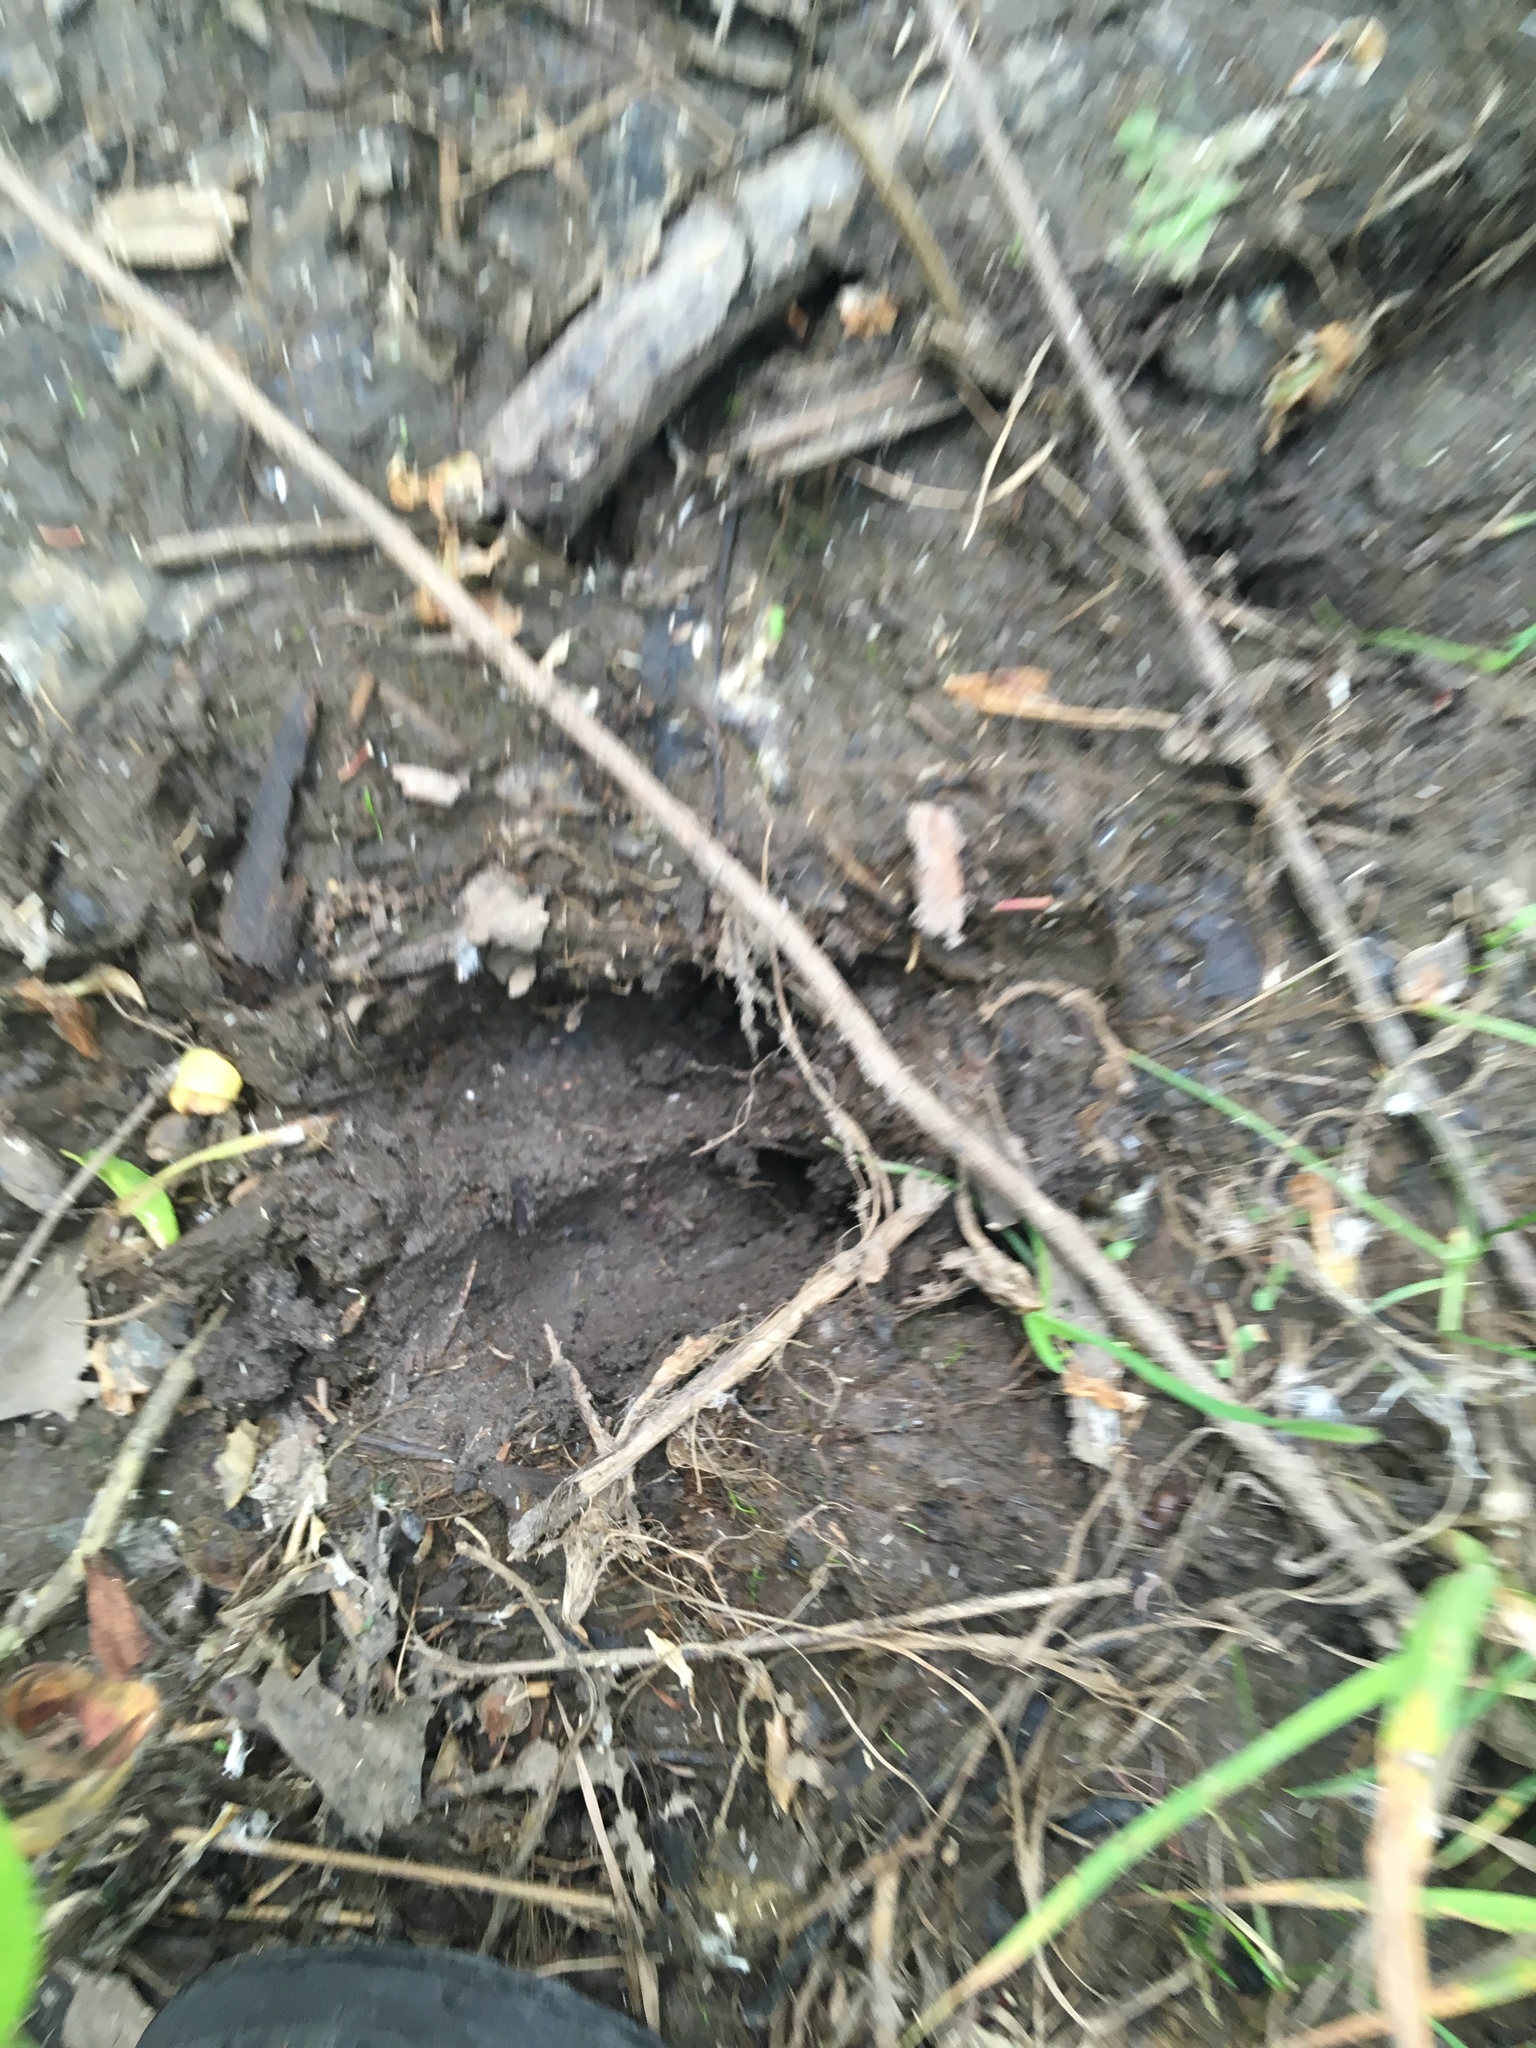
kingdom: Animalia
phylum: Chordata
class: Mammalia
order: Artiodactyla
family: Cervidae
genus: Odocoileus
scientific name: Odocoileus virginianus
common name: White-tailed deer
